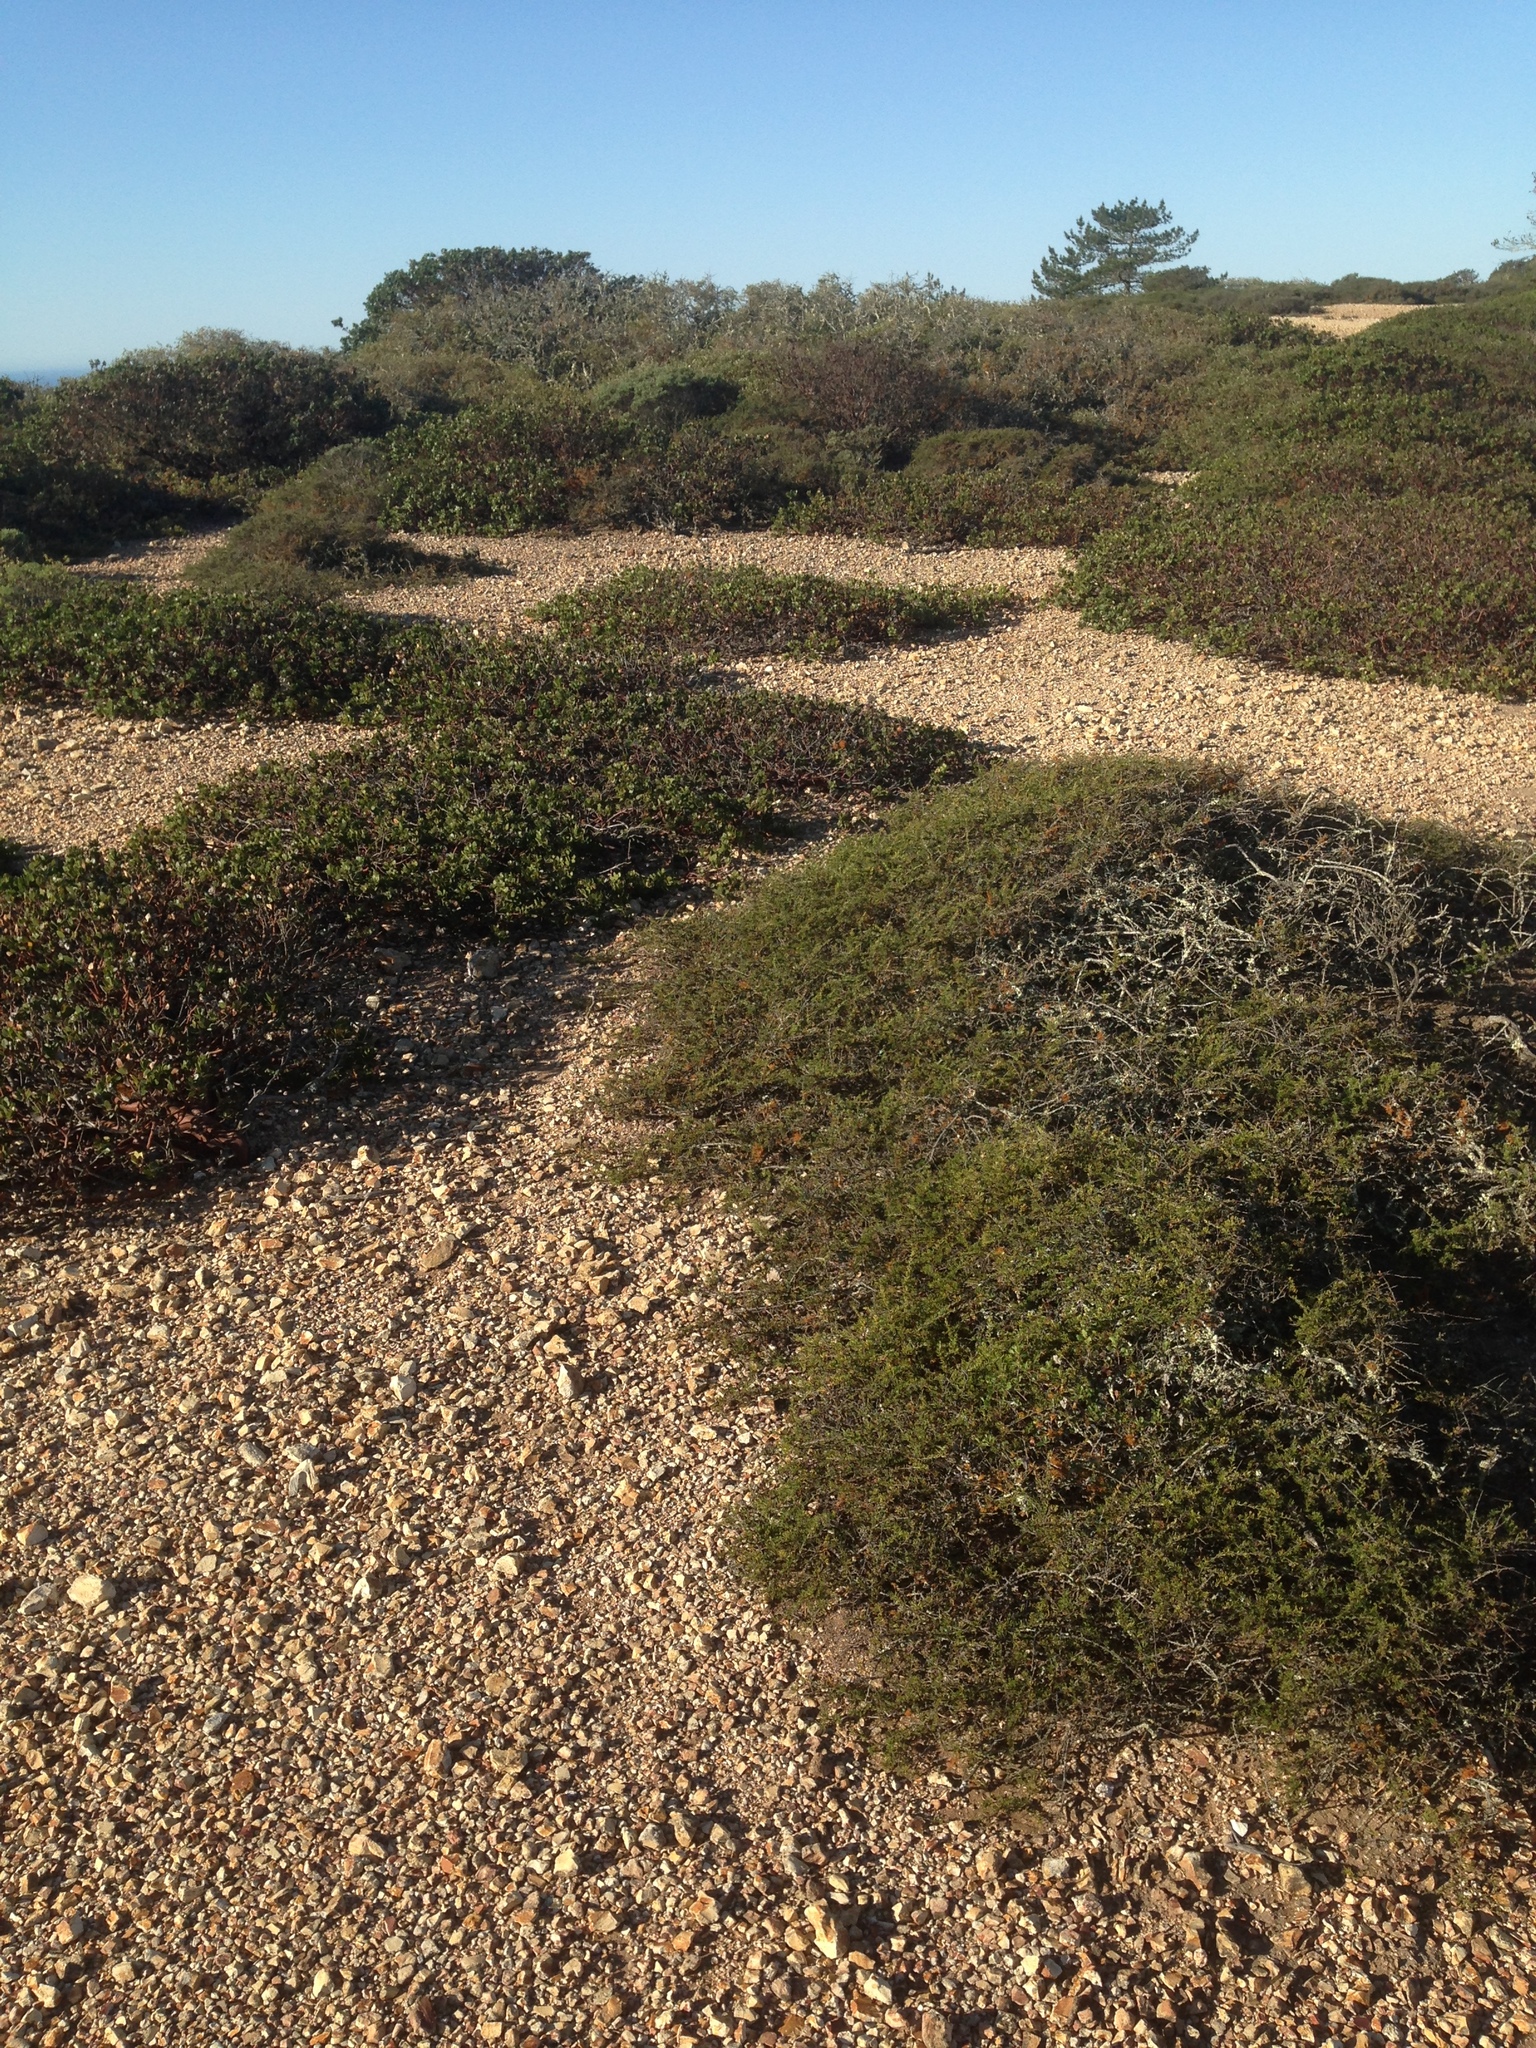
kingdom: Plantae
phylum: Tracheophyta
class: Magnoliopsida
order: Rosales
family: Rosaceae
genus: Adenostoma
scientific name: Adenostoma fasciculatum
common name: Chamise
